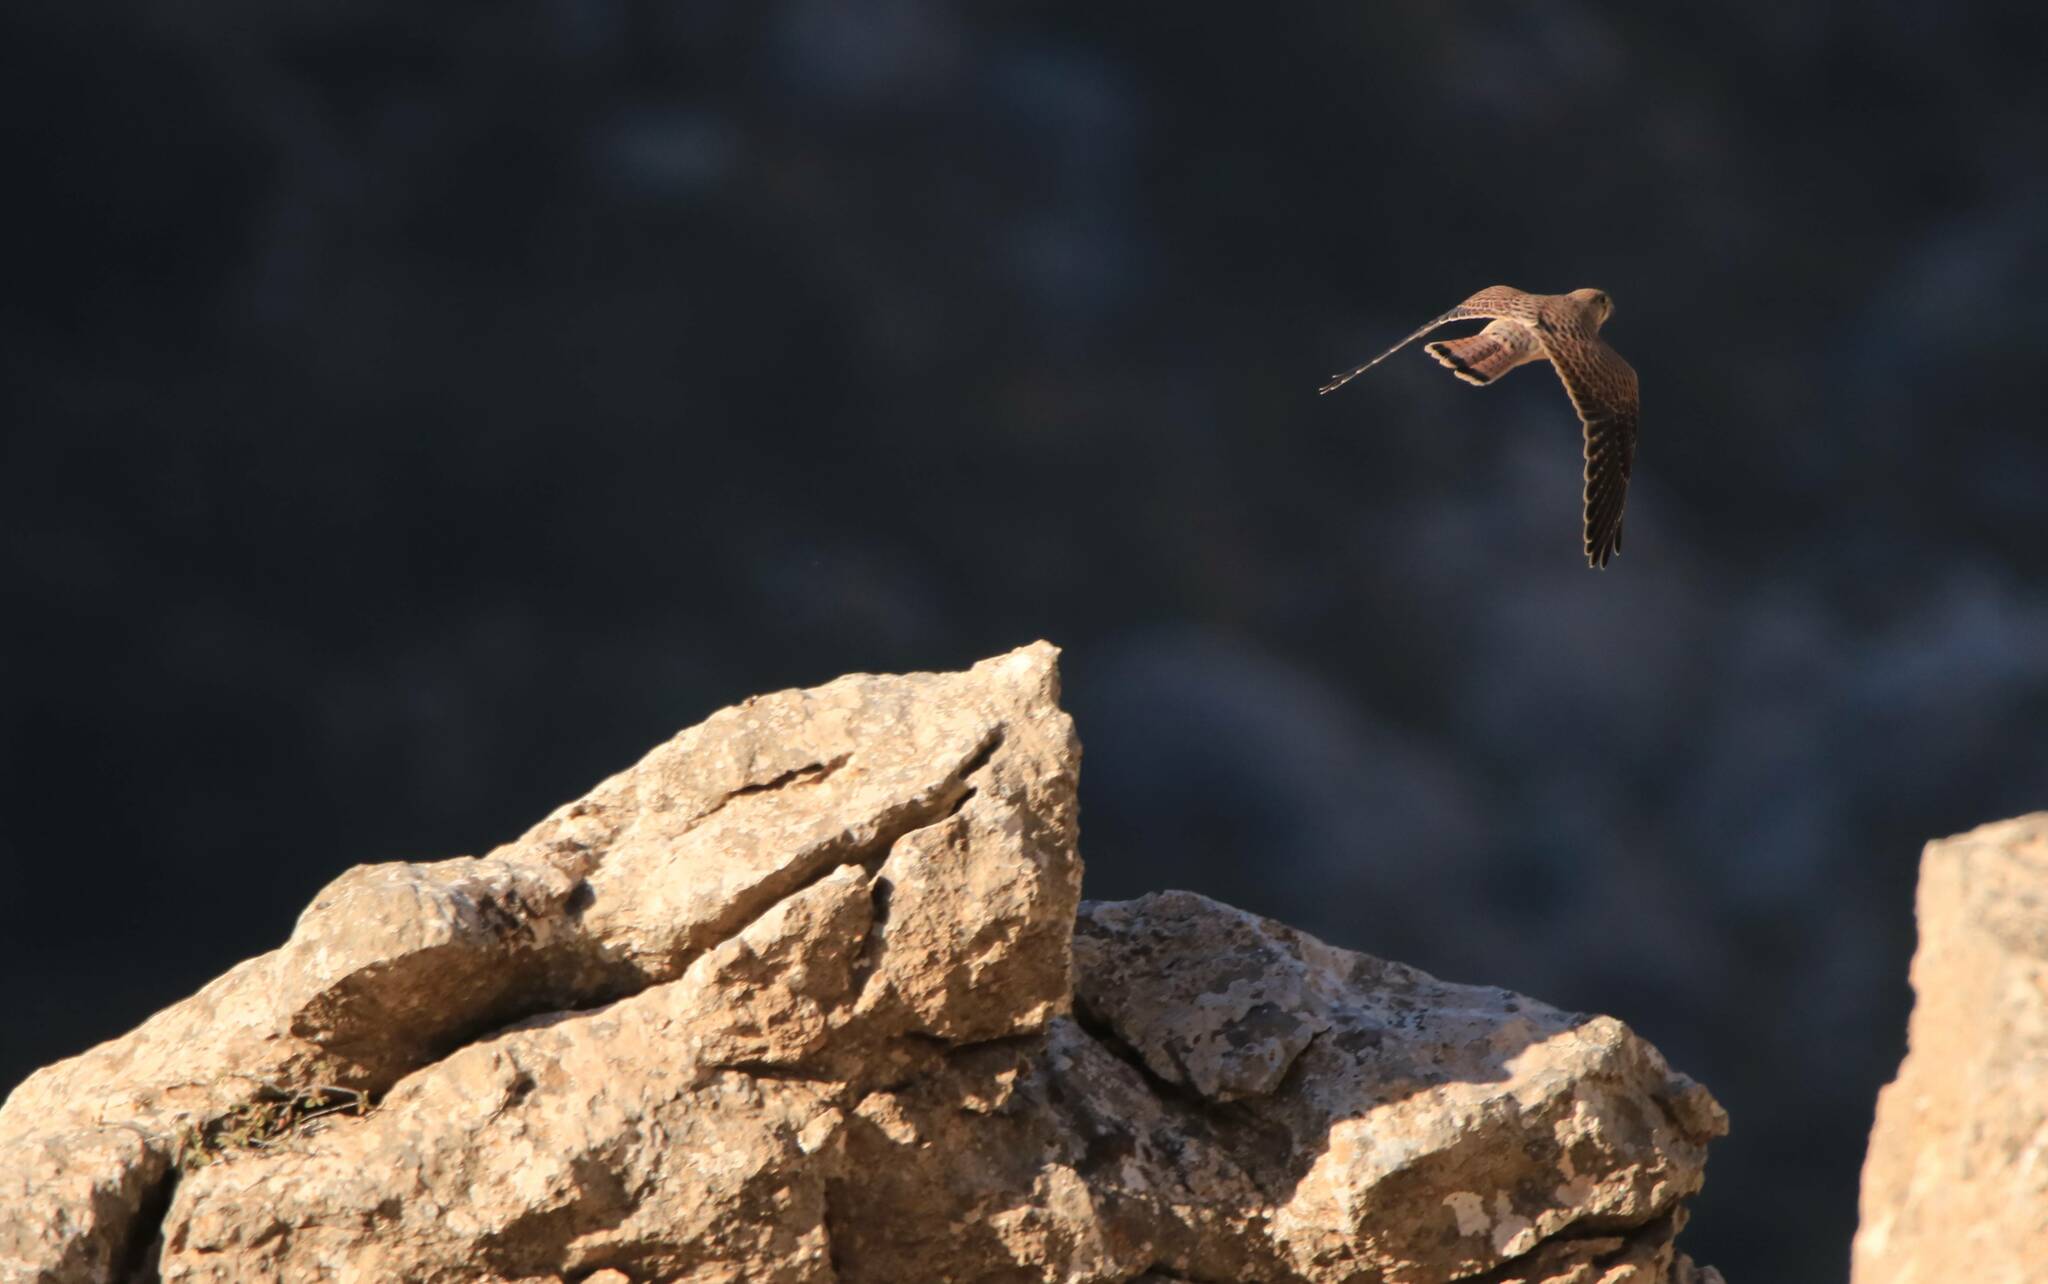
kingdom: Animalia
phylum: Chordata
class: Aves
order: Falconiformes
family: Falconidae
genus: Falco
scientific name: Falco tinnunculus
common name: Common kestrel
